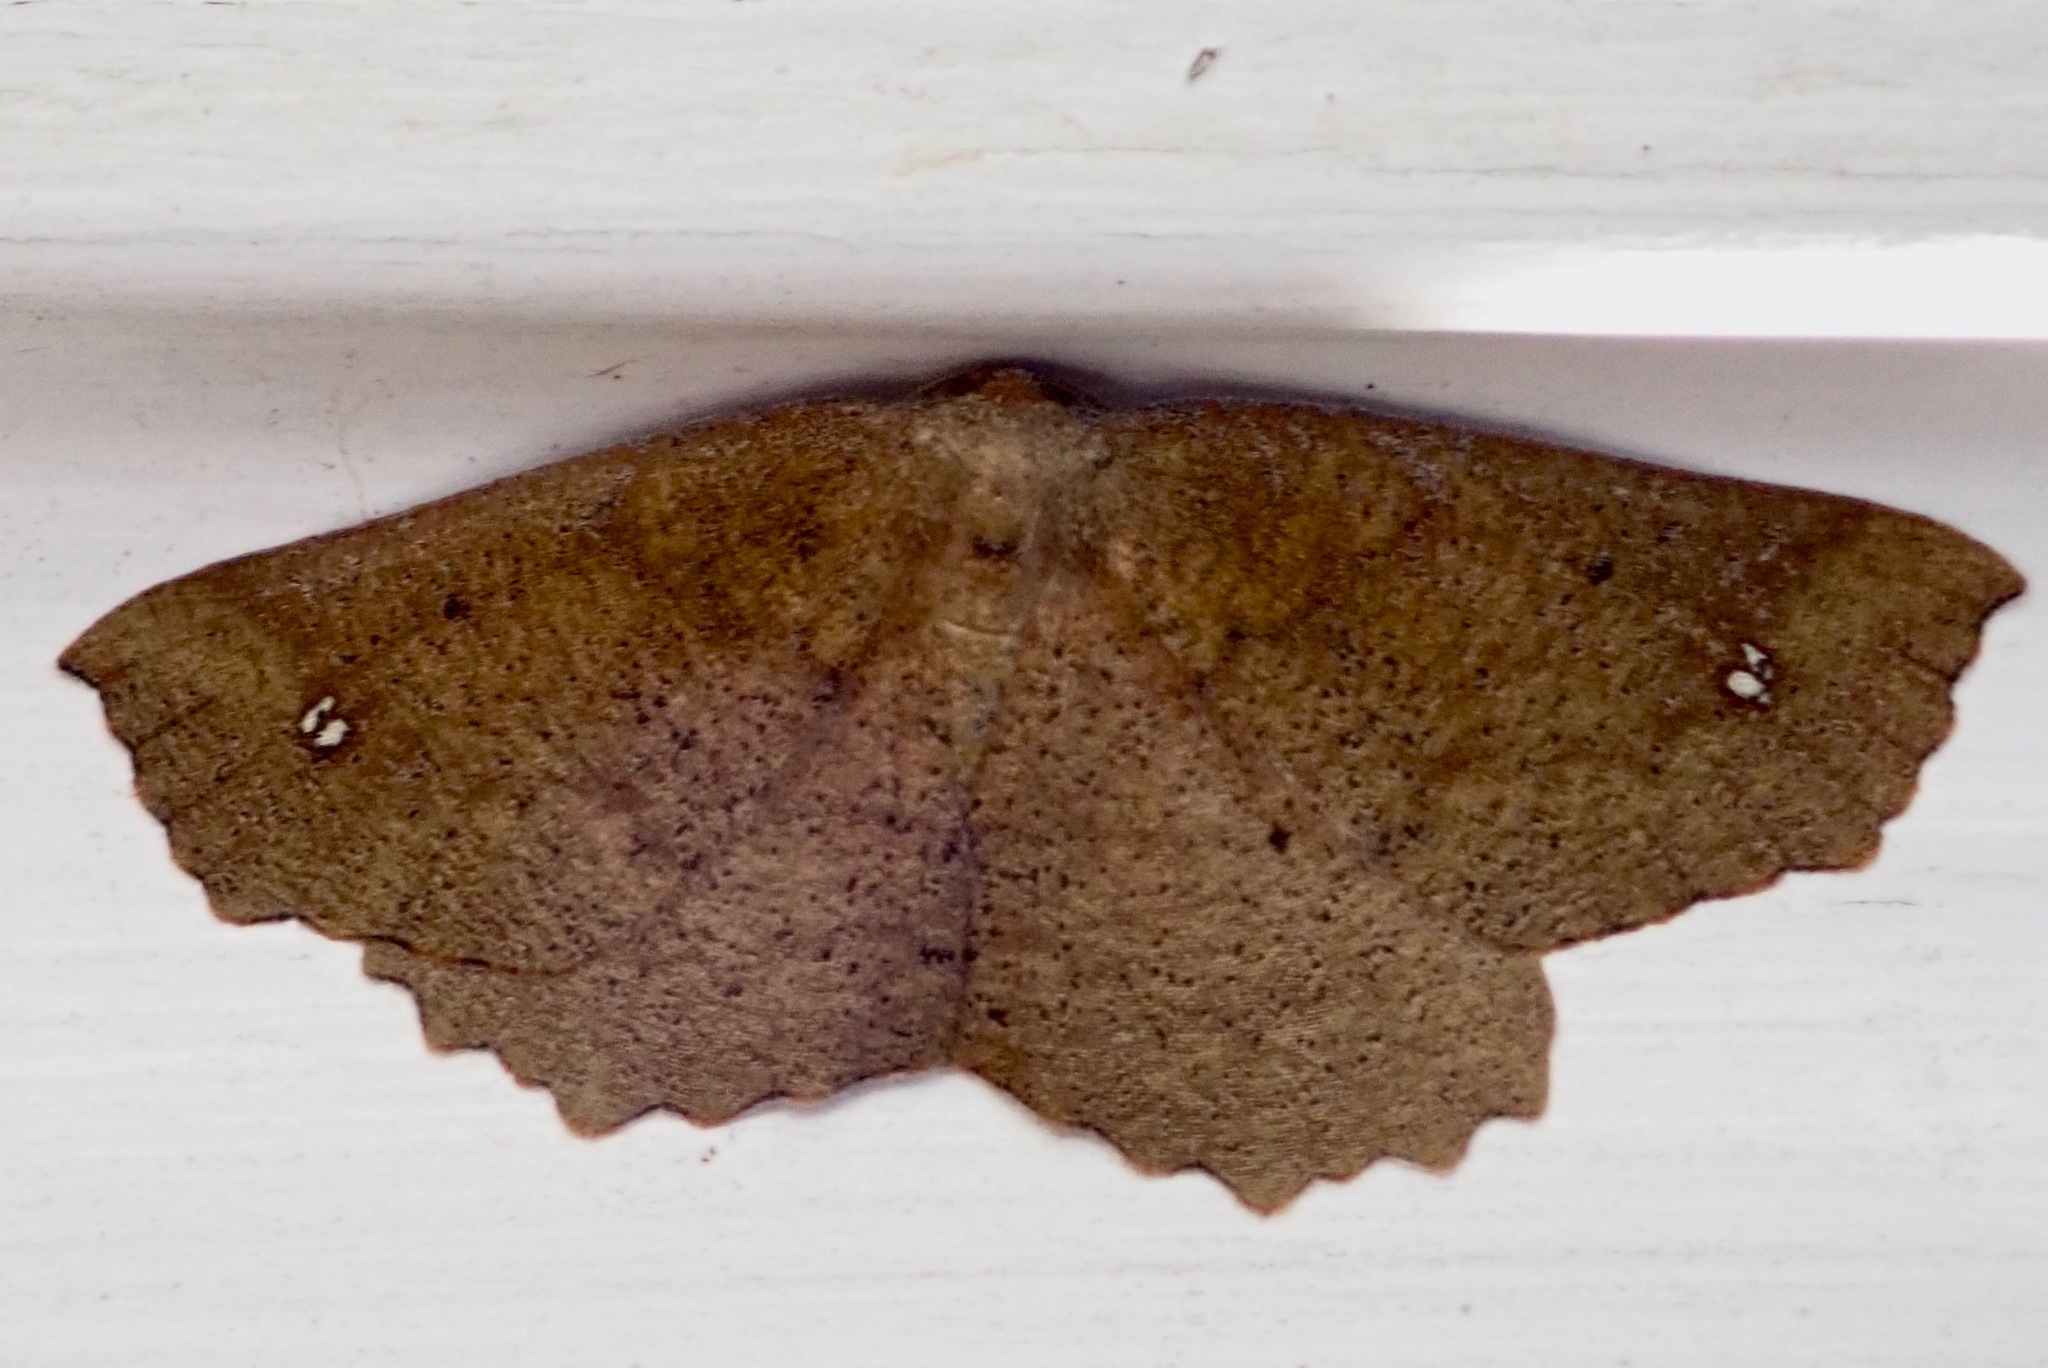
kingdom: Animalia
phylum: Arthropoda
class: Insecta
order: Lepidoptera
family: Geometridae
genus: Xyridacma
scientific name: Xyridacma ustaria
